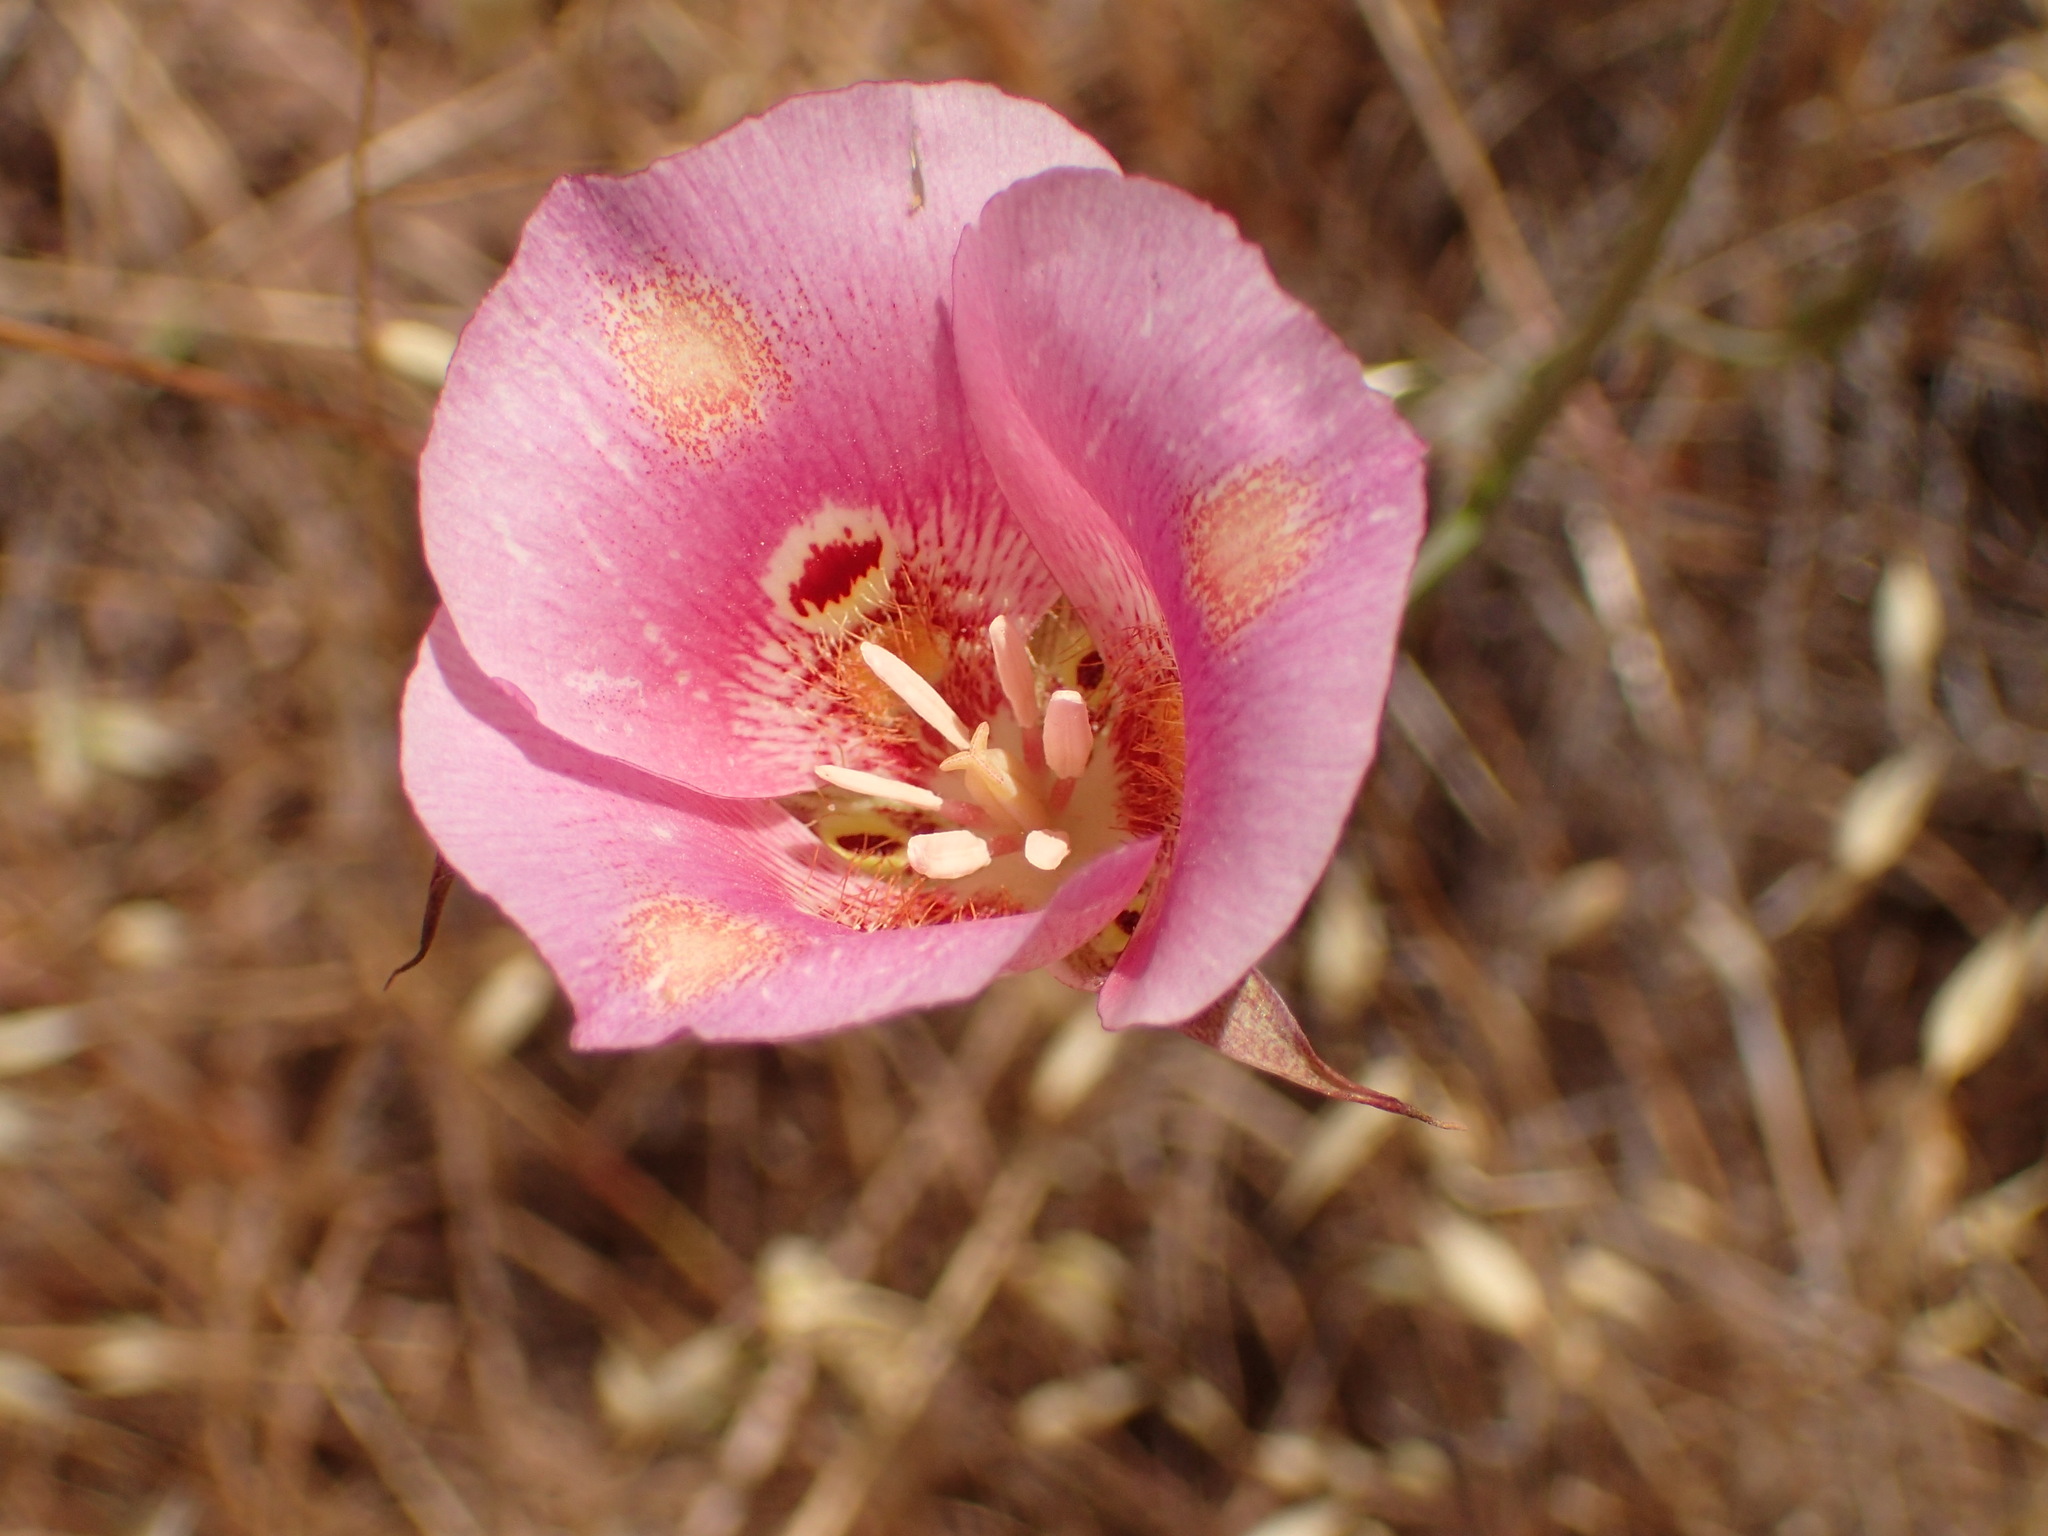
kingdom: Plantae
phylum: Tracheophyta
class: Liliopsida
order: Liliales
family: Liliaceae
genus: Calochortus
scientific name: Calochortus venustus
